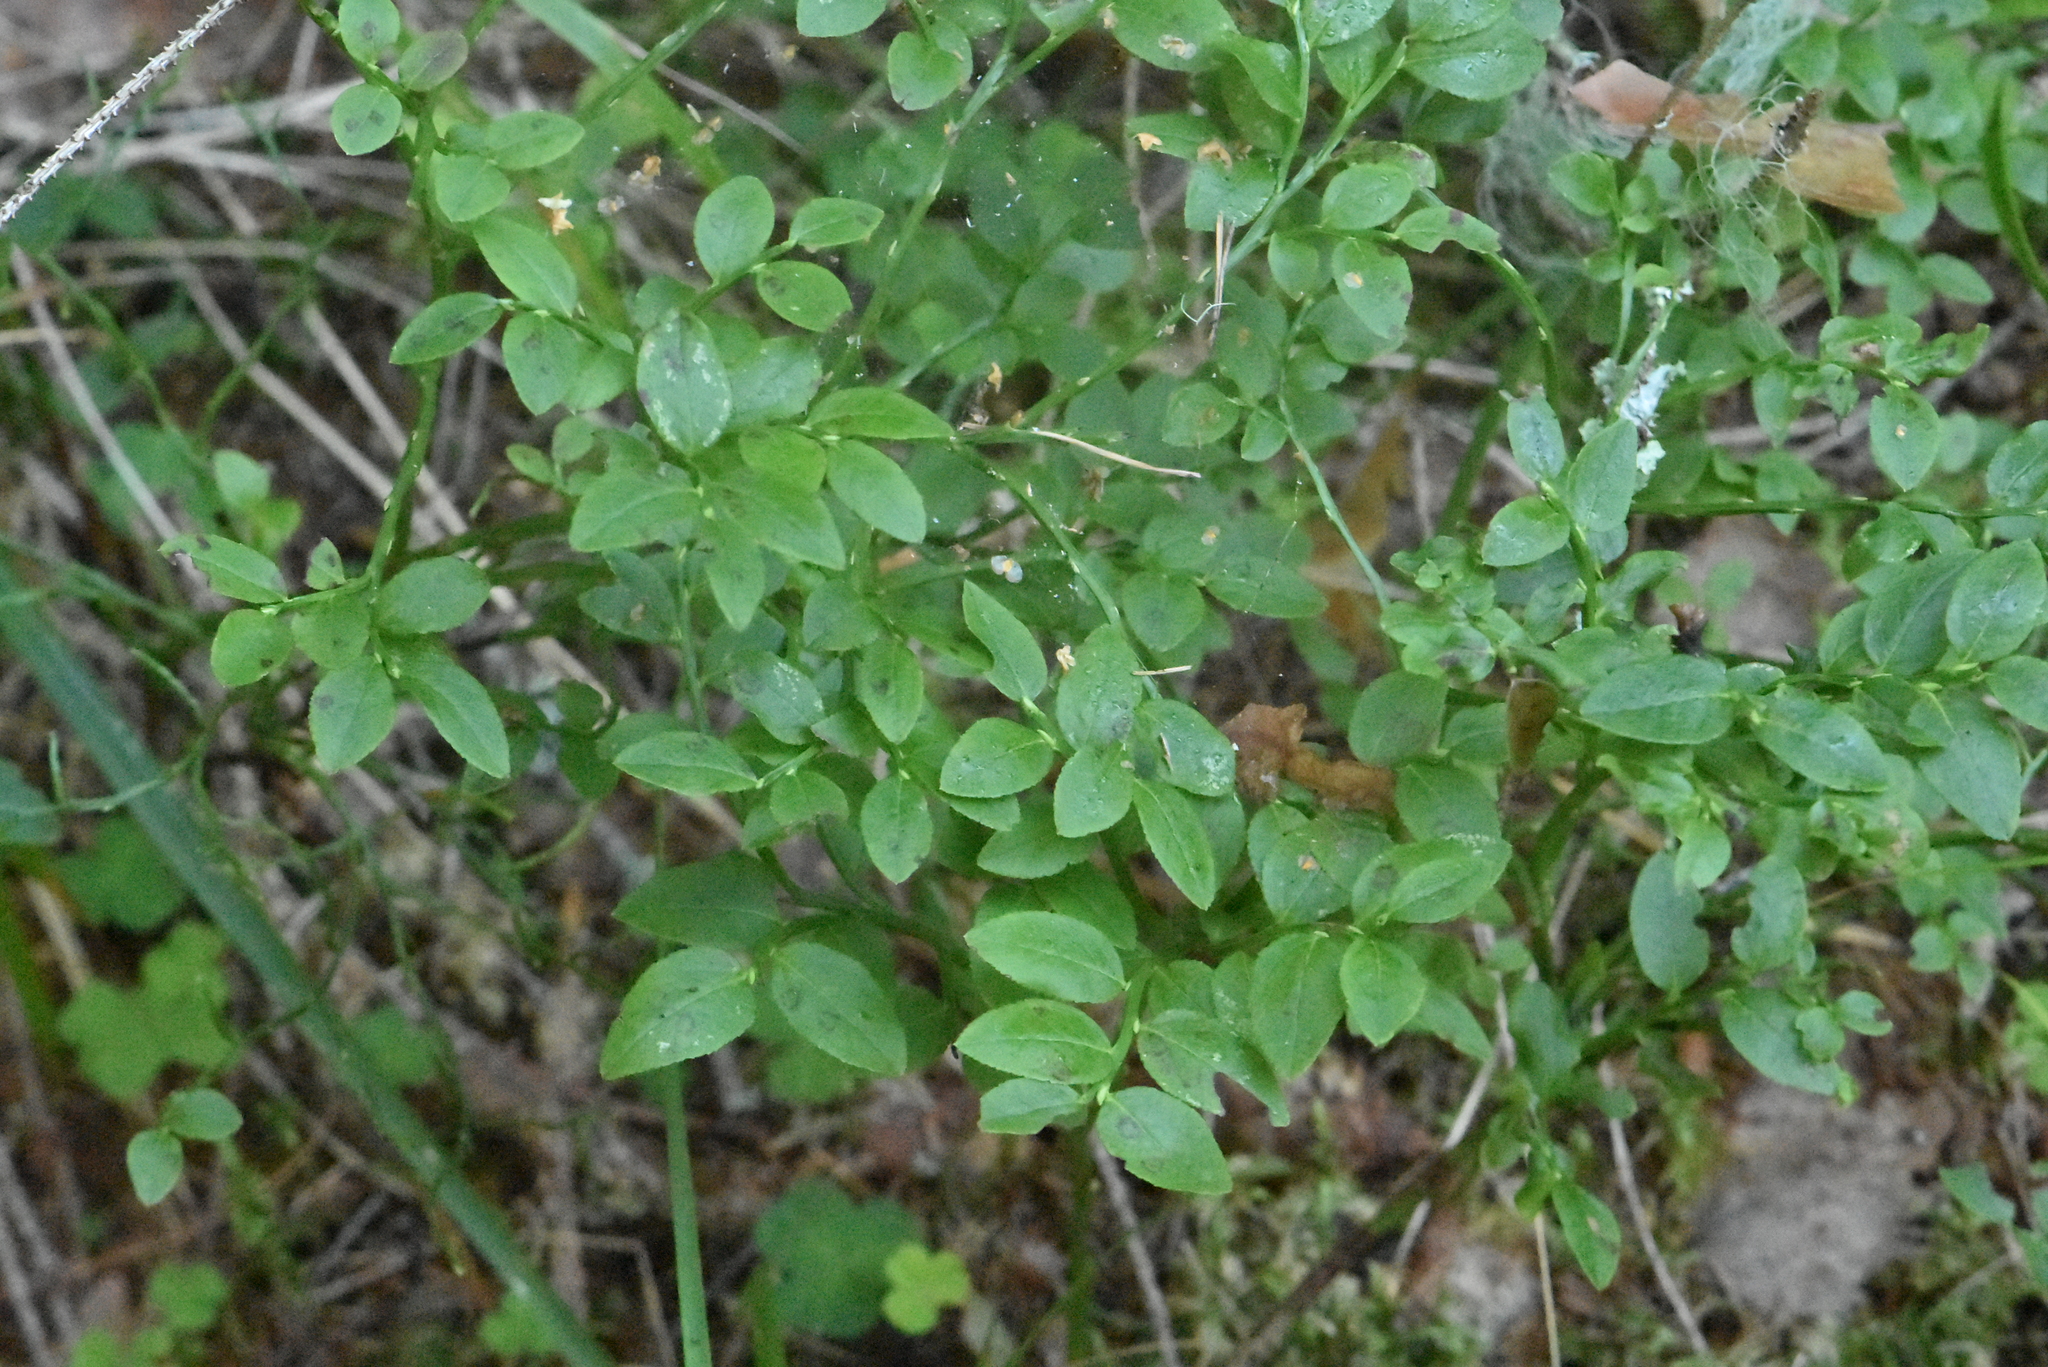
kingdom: Plantae
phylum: Tracheophyta
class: Magnoliopsida
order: Ericales
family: Ericaceae
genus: Vaccinium
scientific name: Vaccinium myrtillus
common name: Bilberry
